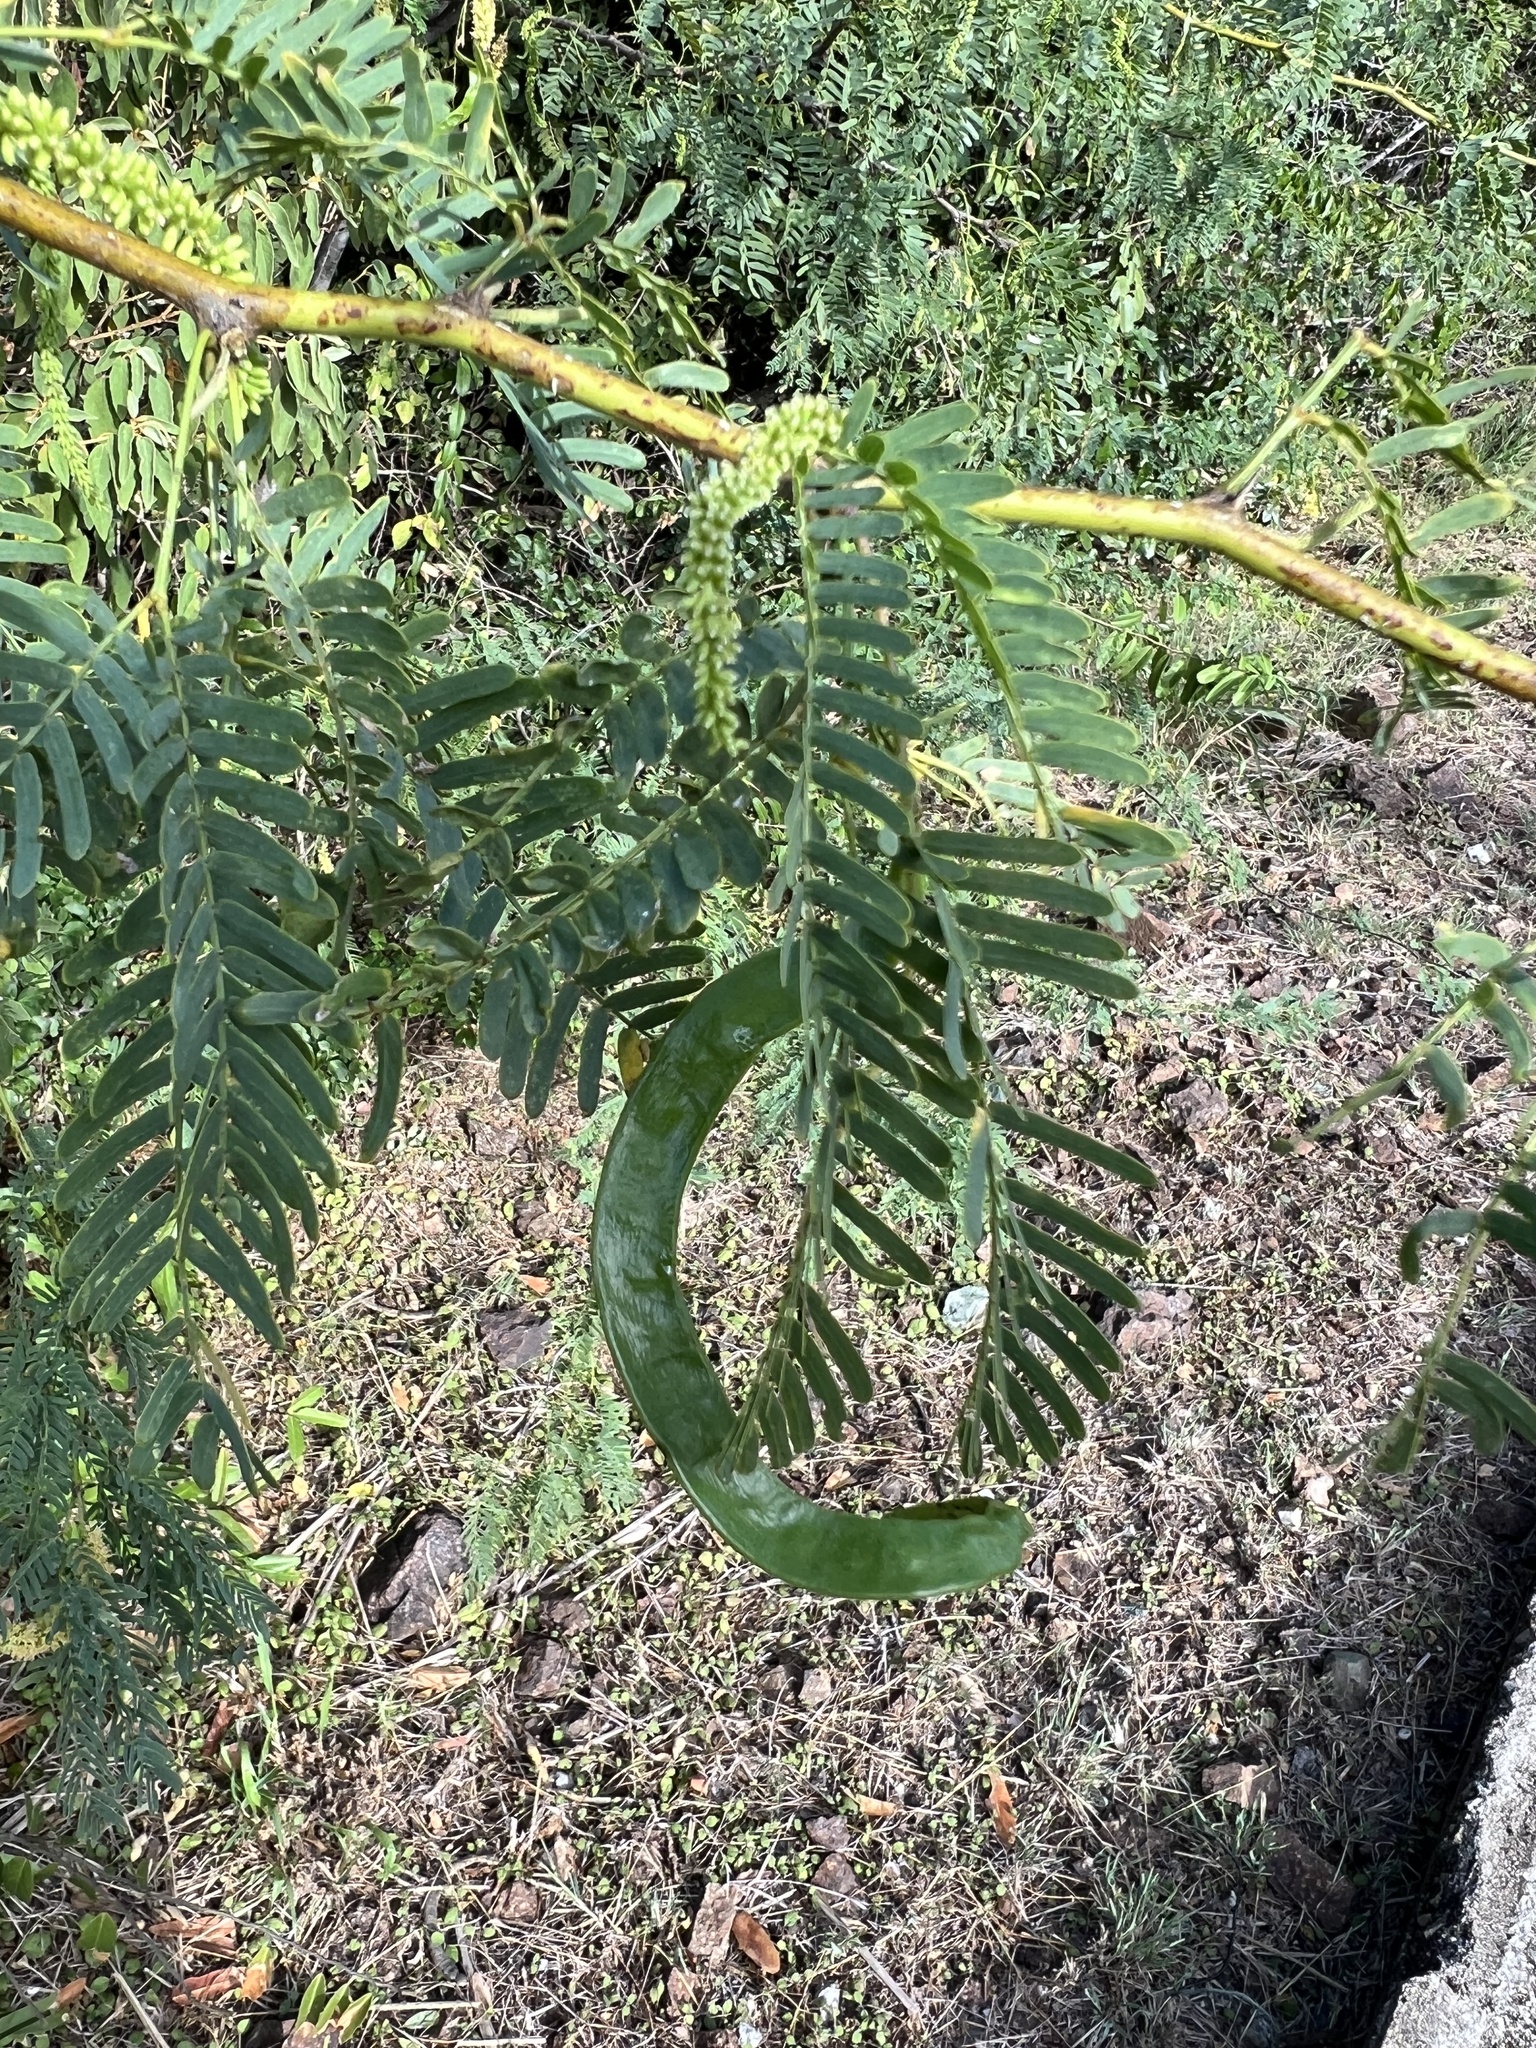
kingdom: Plantae
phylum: Tracheophyta
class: Magnoliopsida
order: Fabales
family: Fabaceae
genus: Prosopis
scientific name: Prosopis juliflora
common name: Mesquite
